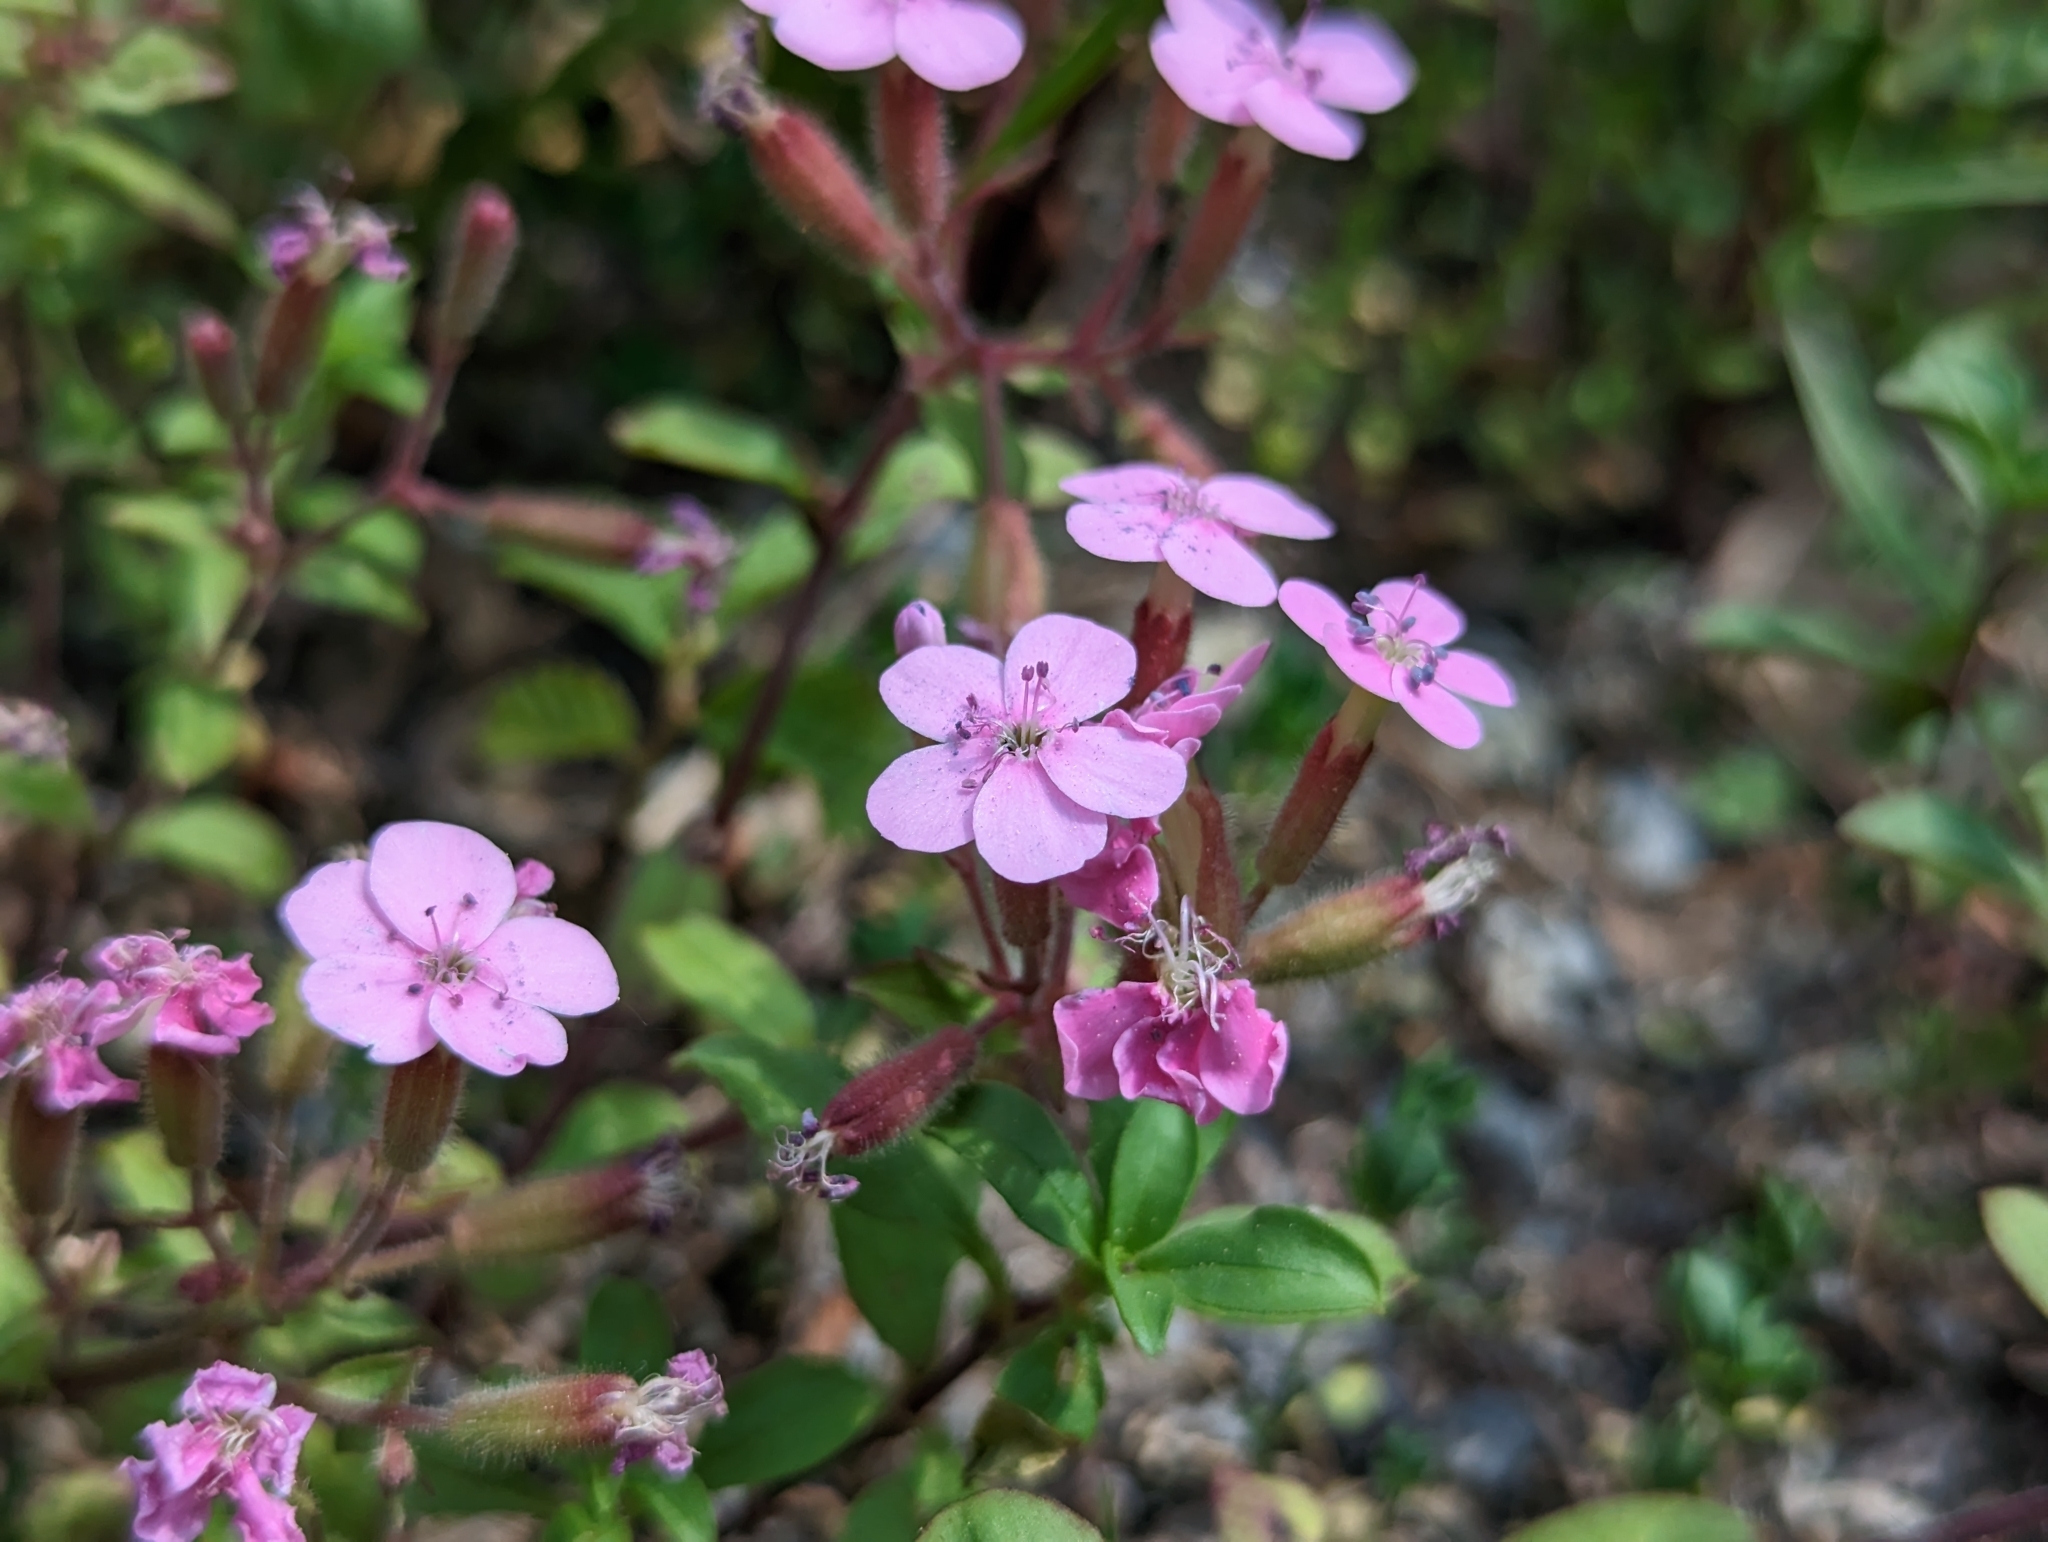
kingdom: Plantae
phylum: Tracheophyta
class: Magnoliopsida
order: Caryophyllales
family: Caryophyllaceae
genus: Saponaria
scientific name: Saponaria ocymoides
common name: Rock soapwort
